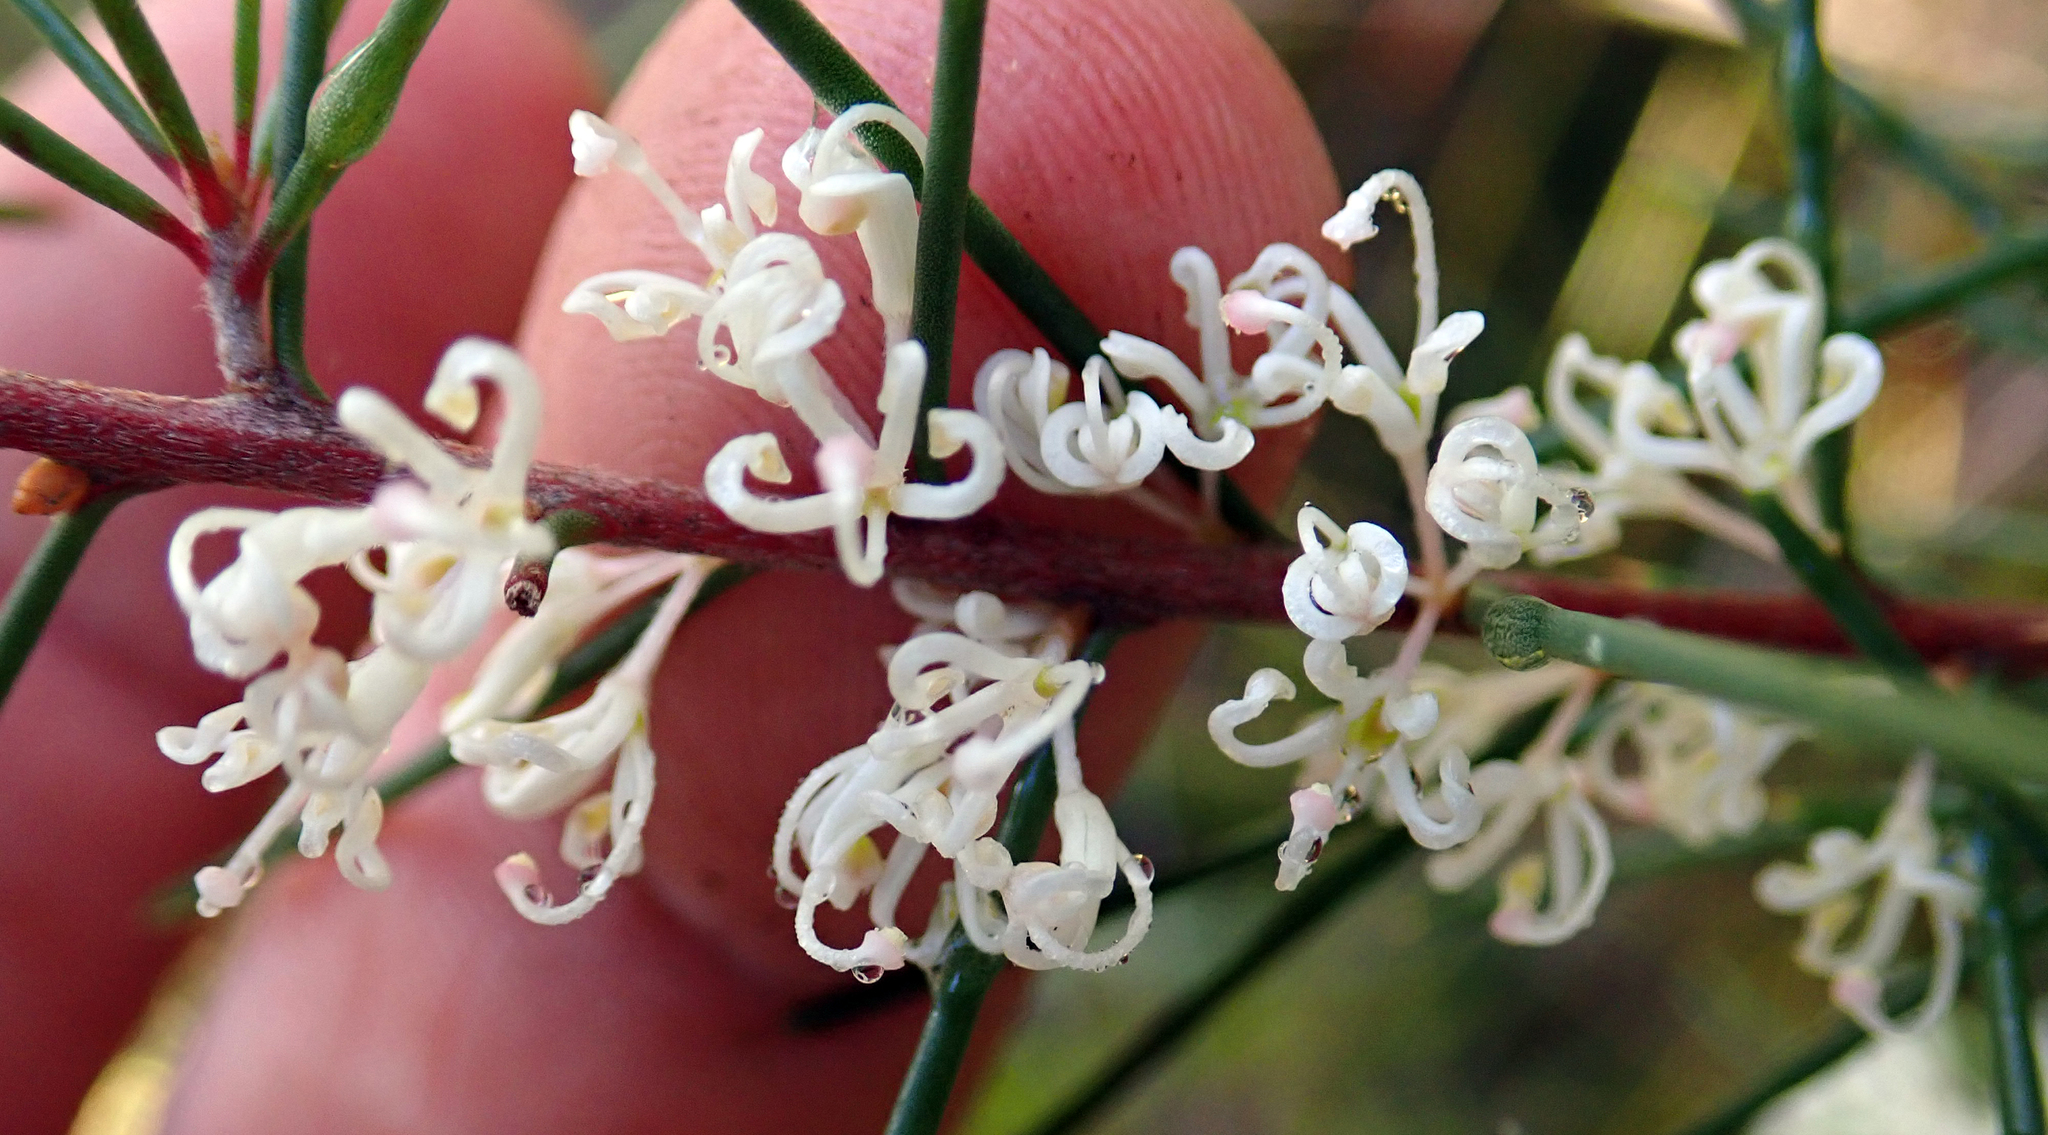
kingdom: Plantae
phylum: Tracheophyta
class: Magnoliopsida
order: Proteales
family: Proteaceae
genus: Hakea
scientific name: Hakea sericea
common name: Needle bush
